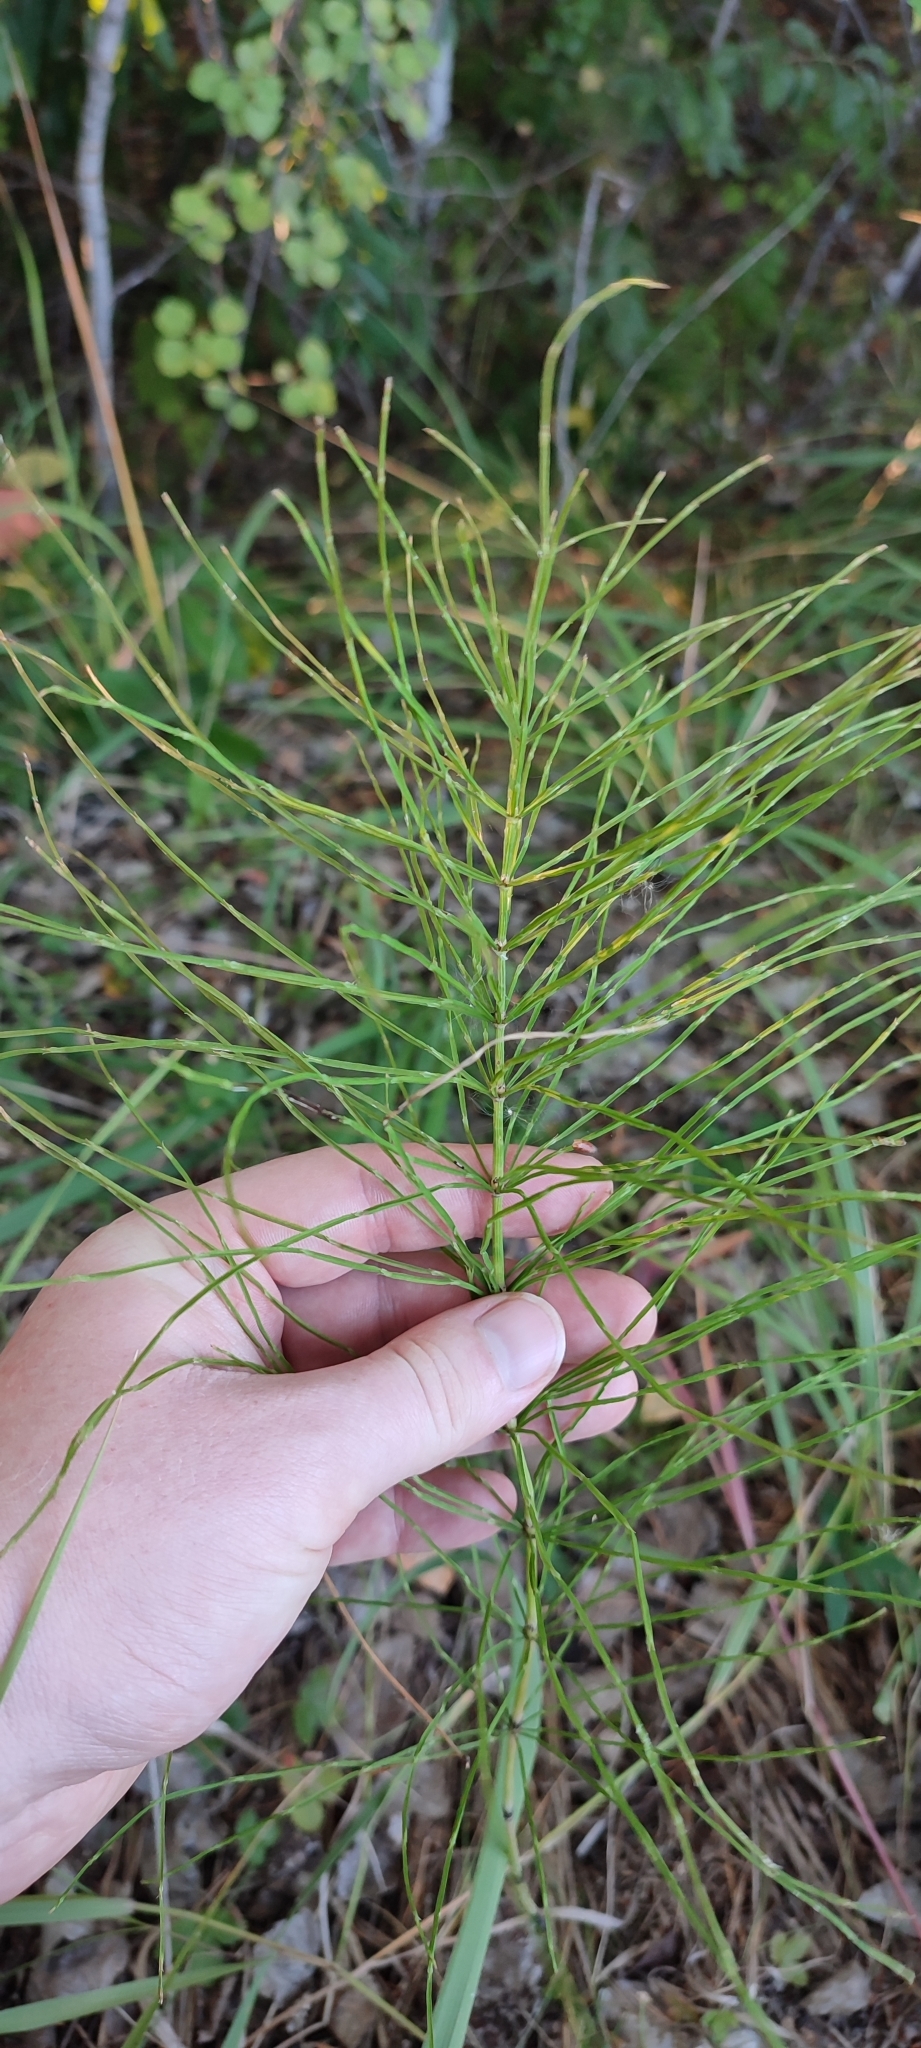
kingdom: Plantae
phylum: Tracheophyta
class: Polypodiopsida
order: Equisetales
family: Equisetaceae
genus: Equisetum
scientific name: Equisetum arvense
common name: Field horsetail
